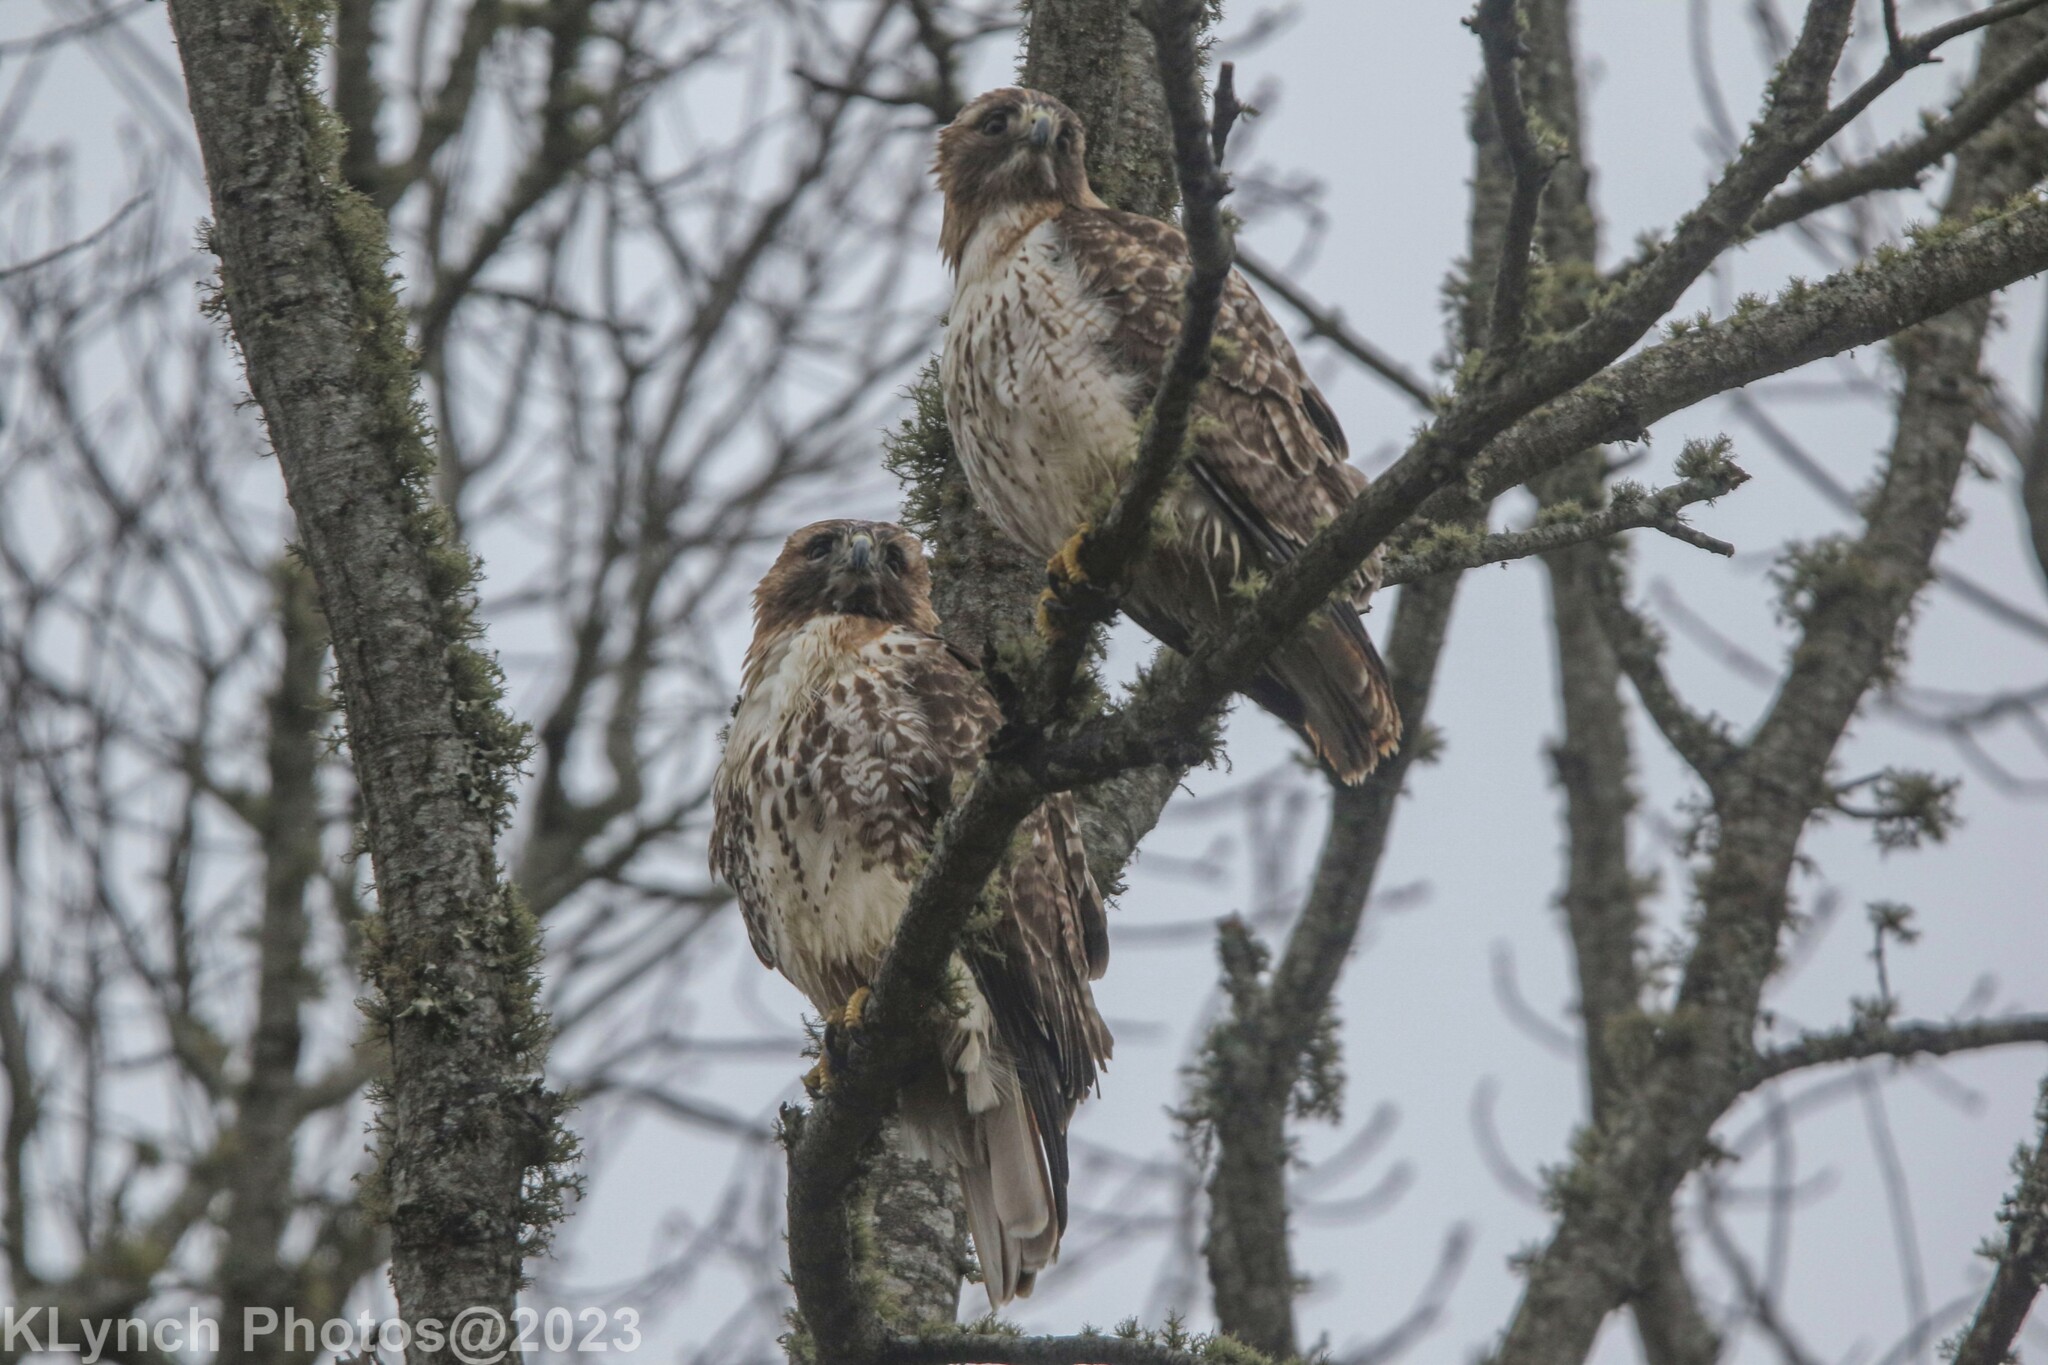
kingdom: Animalia
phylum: Chordata
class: Aves
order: Accipitriformes
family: Accipitridae
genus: Buteo
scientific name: Buteo jamaicensis
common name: Red-tailed hawk
